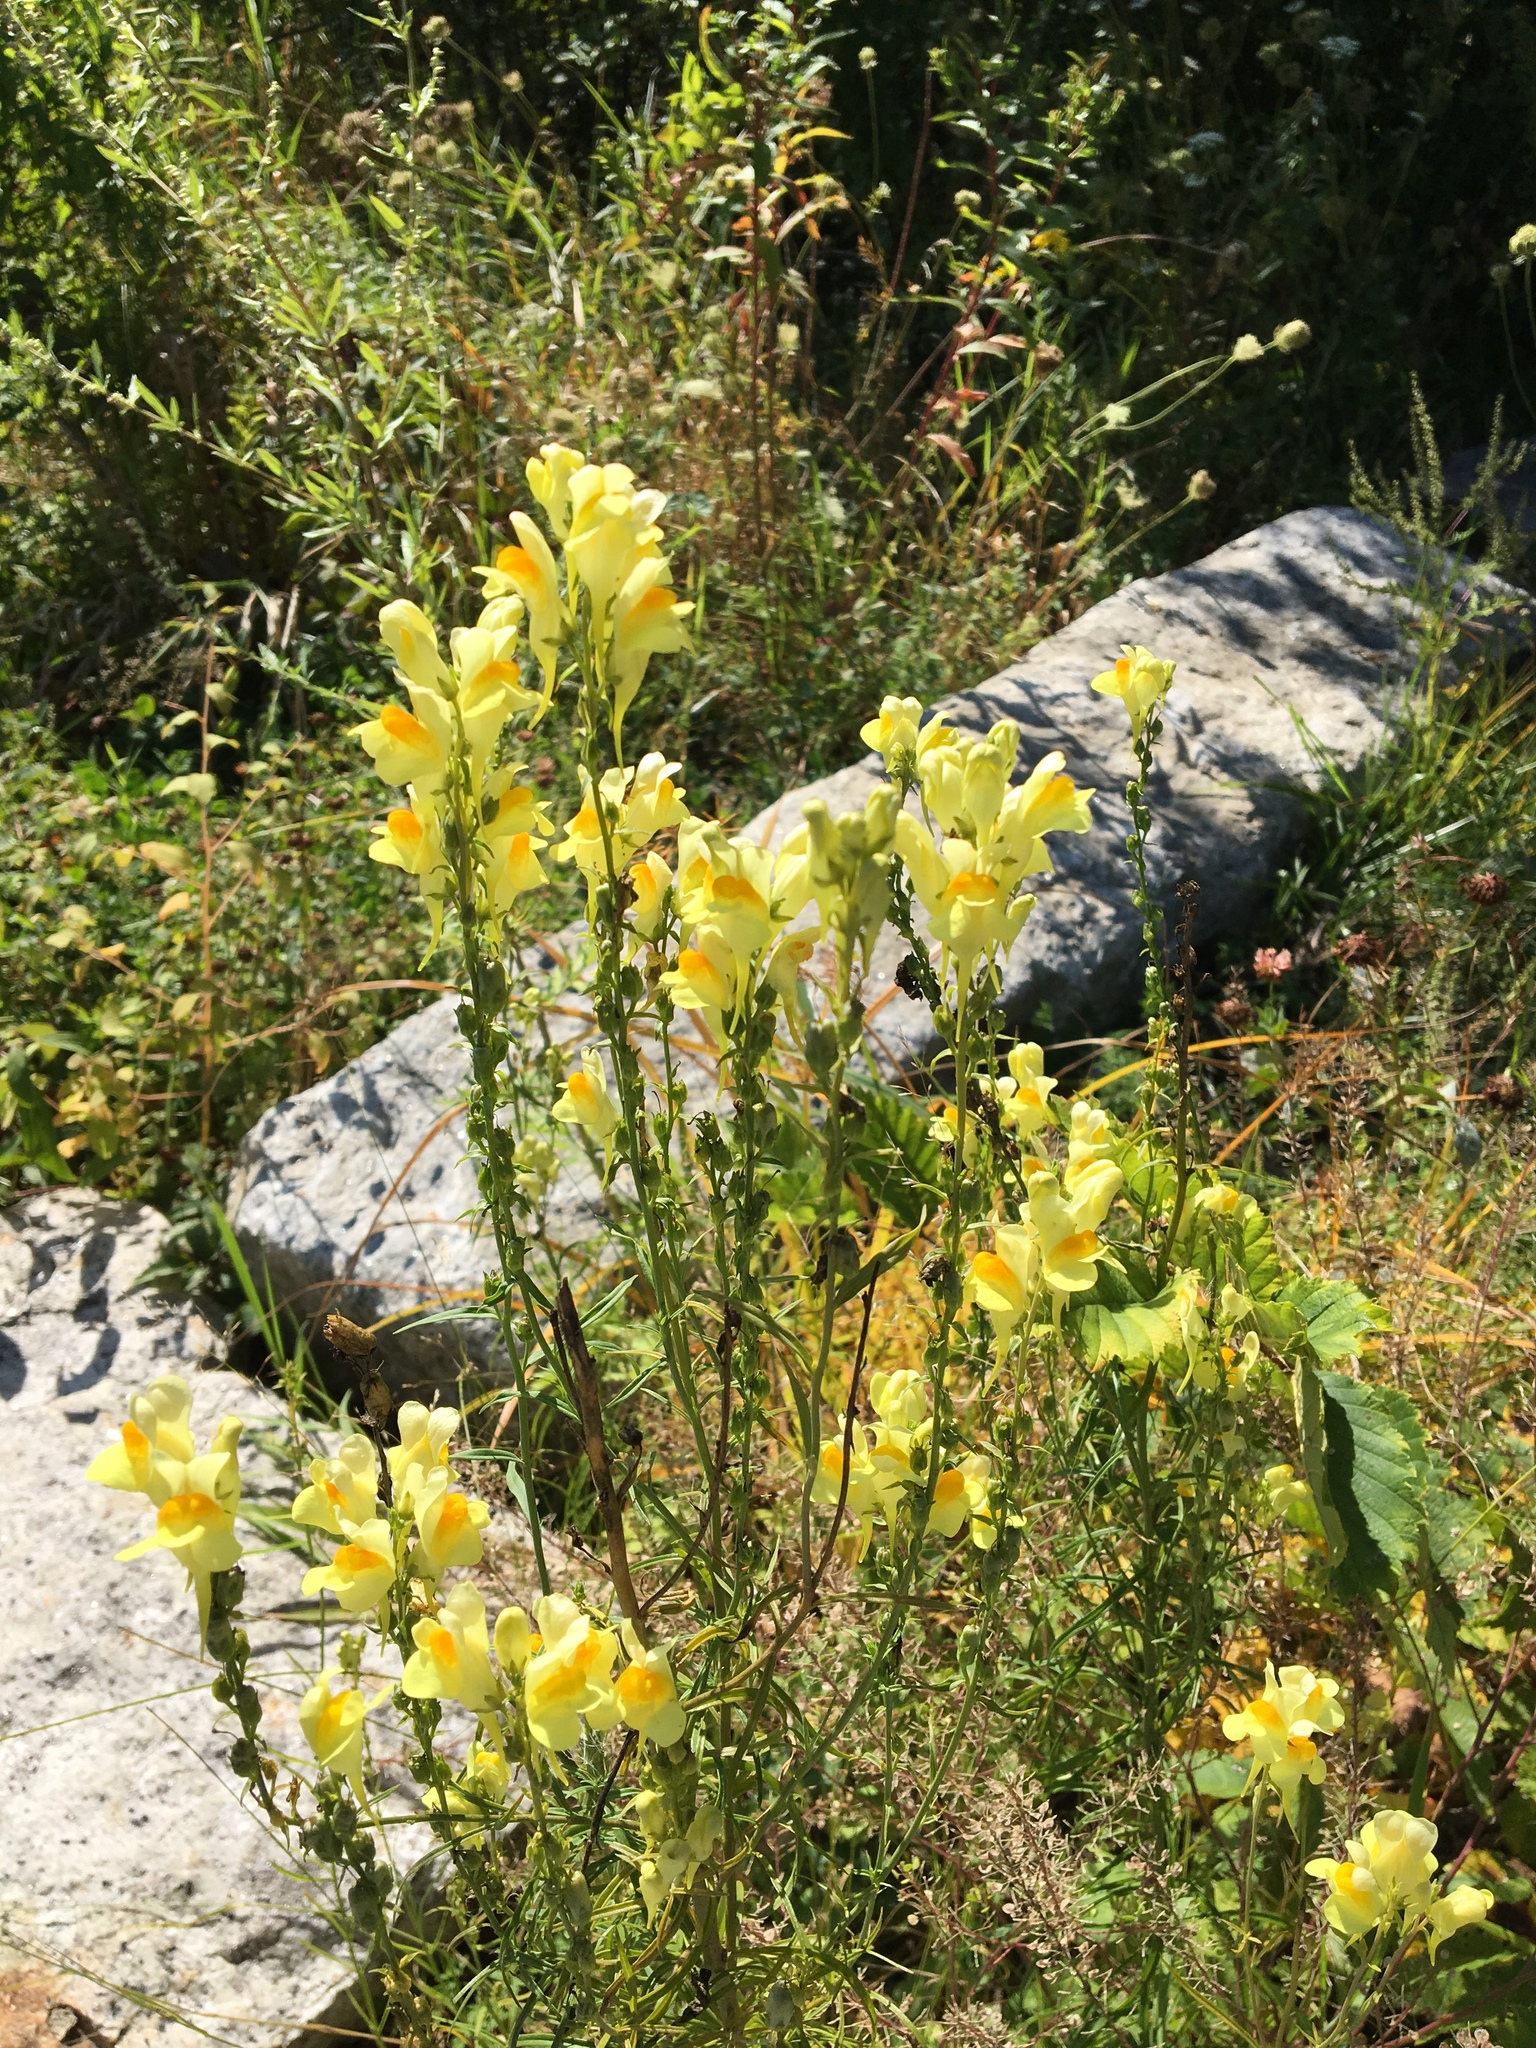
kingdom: Plantae
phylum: Tracheophyta
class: Magnoliopsida
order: Lamiales
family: Plantaginaceae
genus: Linaria
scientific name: Linaria vulgaris
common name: Butter and eggs
